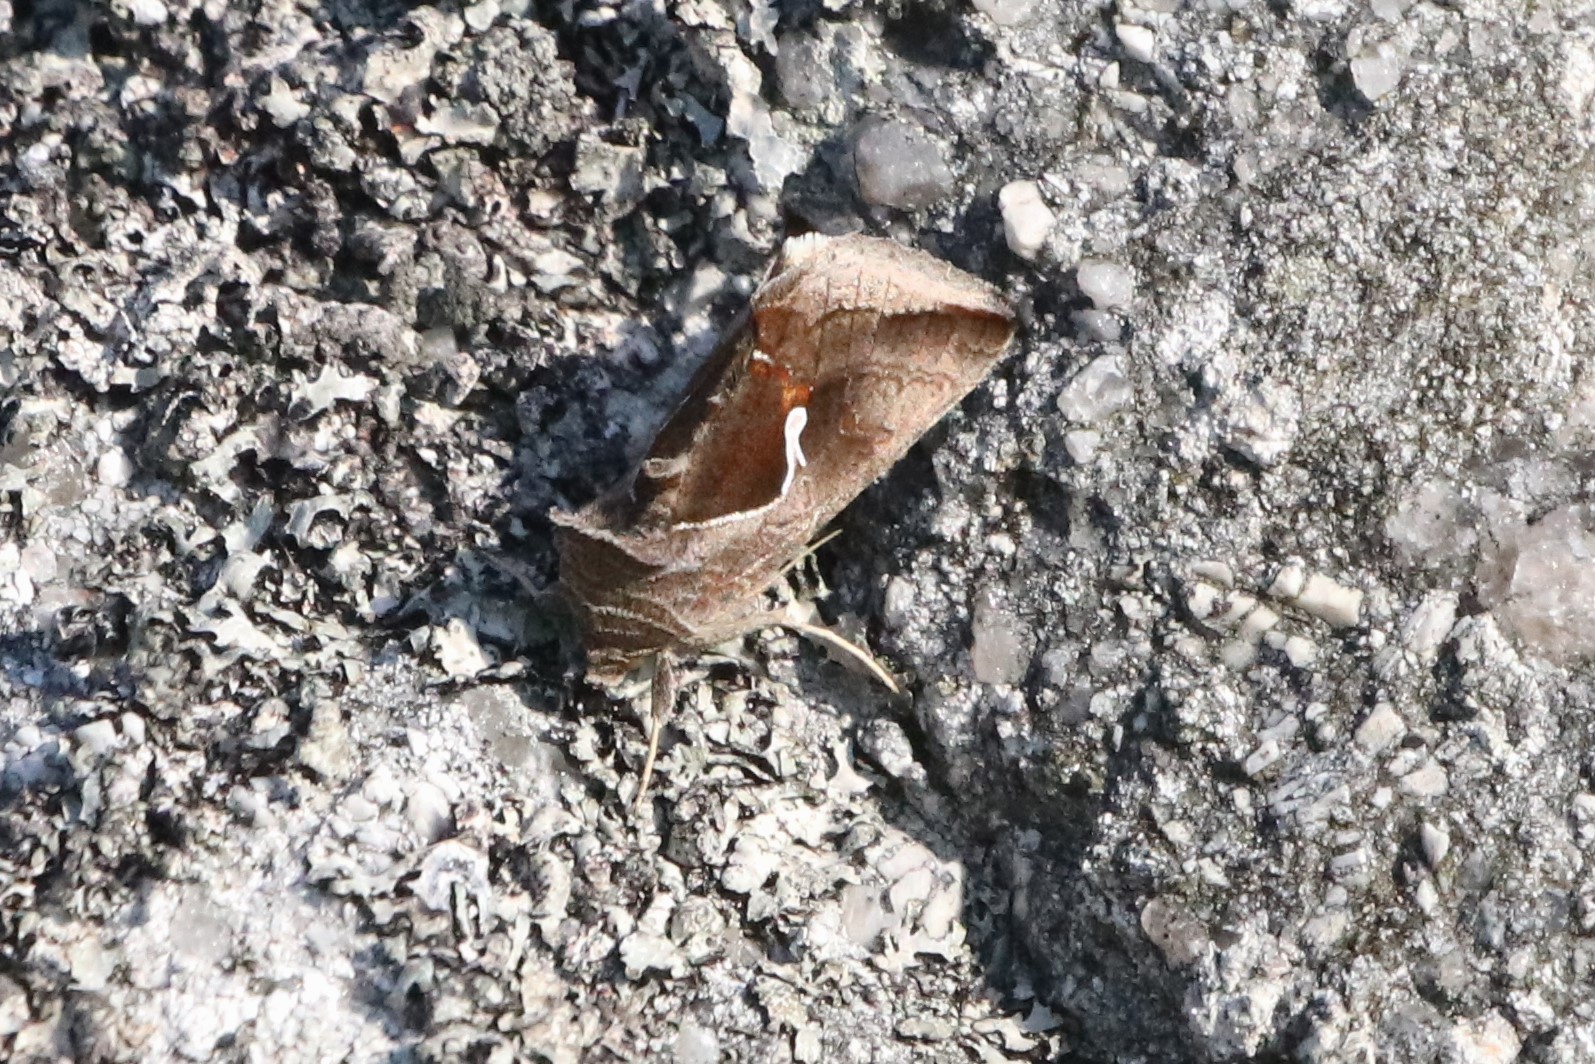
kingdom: Animalia
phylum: Arthropoda
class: Insecta
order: Lepidoptera
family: Noctuidae
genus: Anagrapha
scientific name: Anagrapha falcifera
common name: Celery looper
